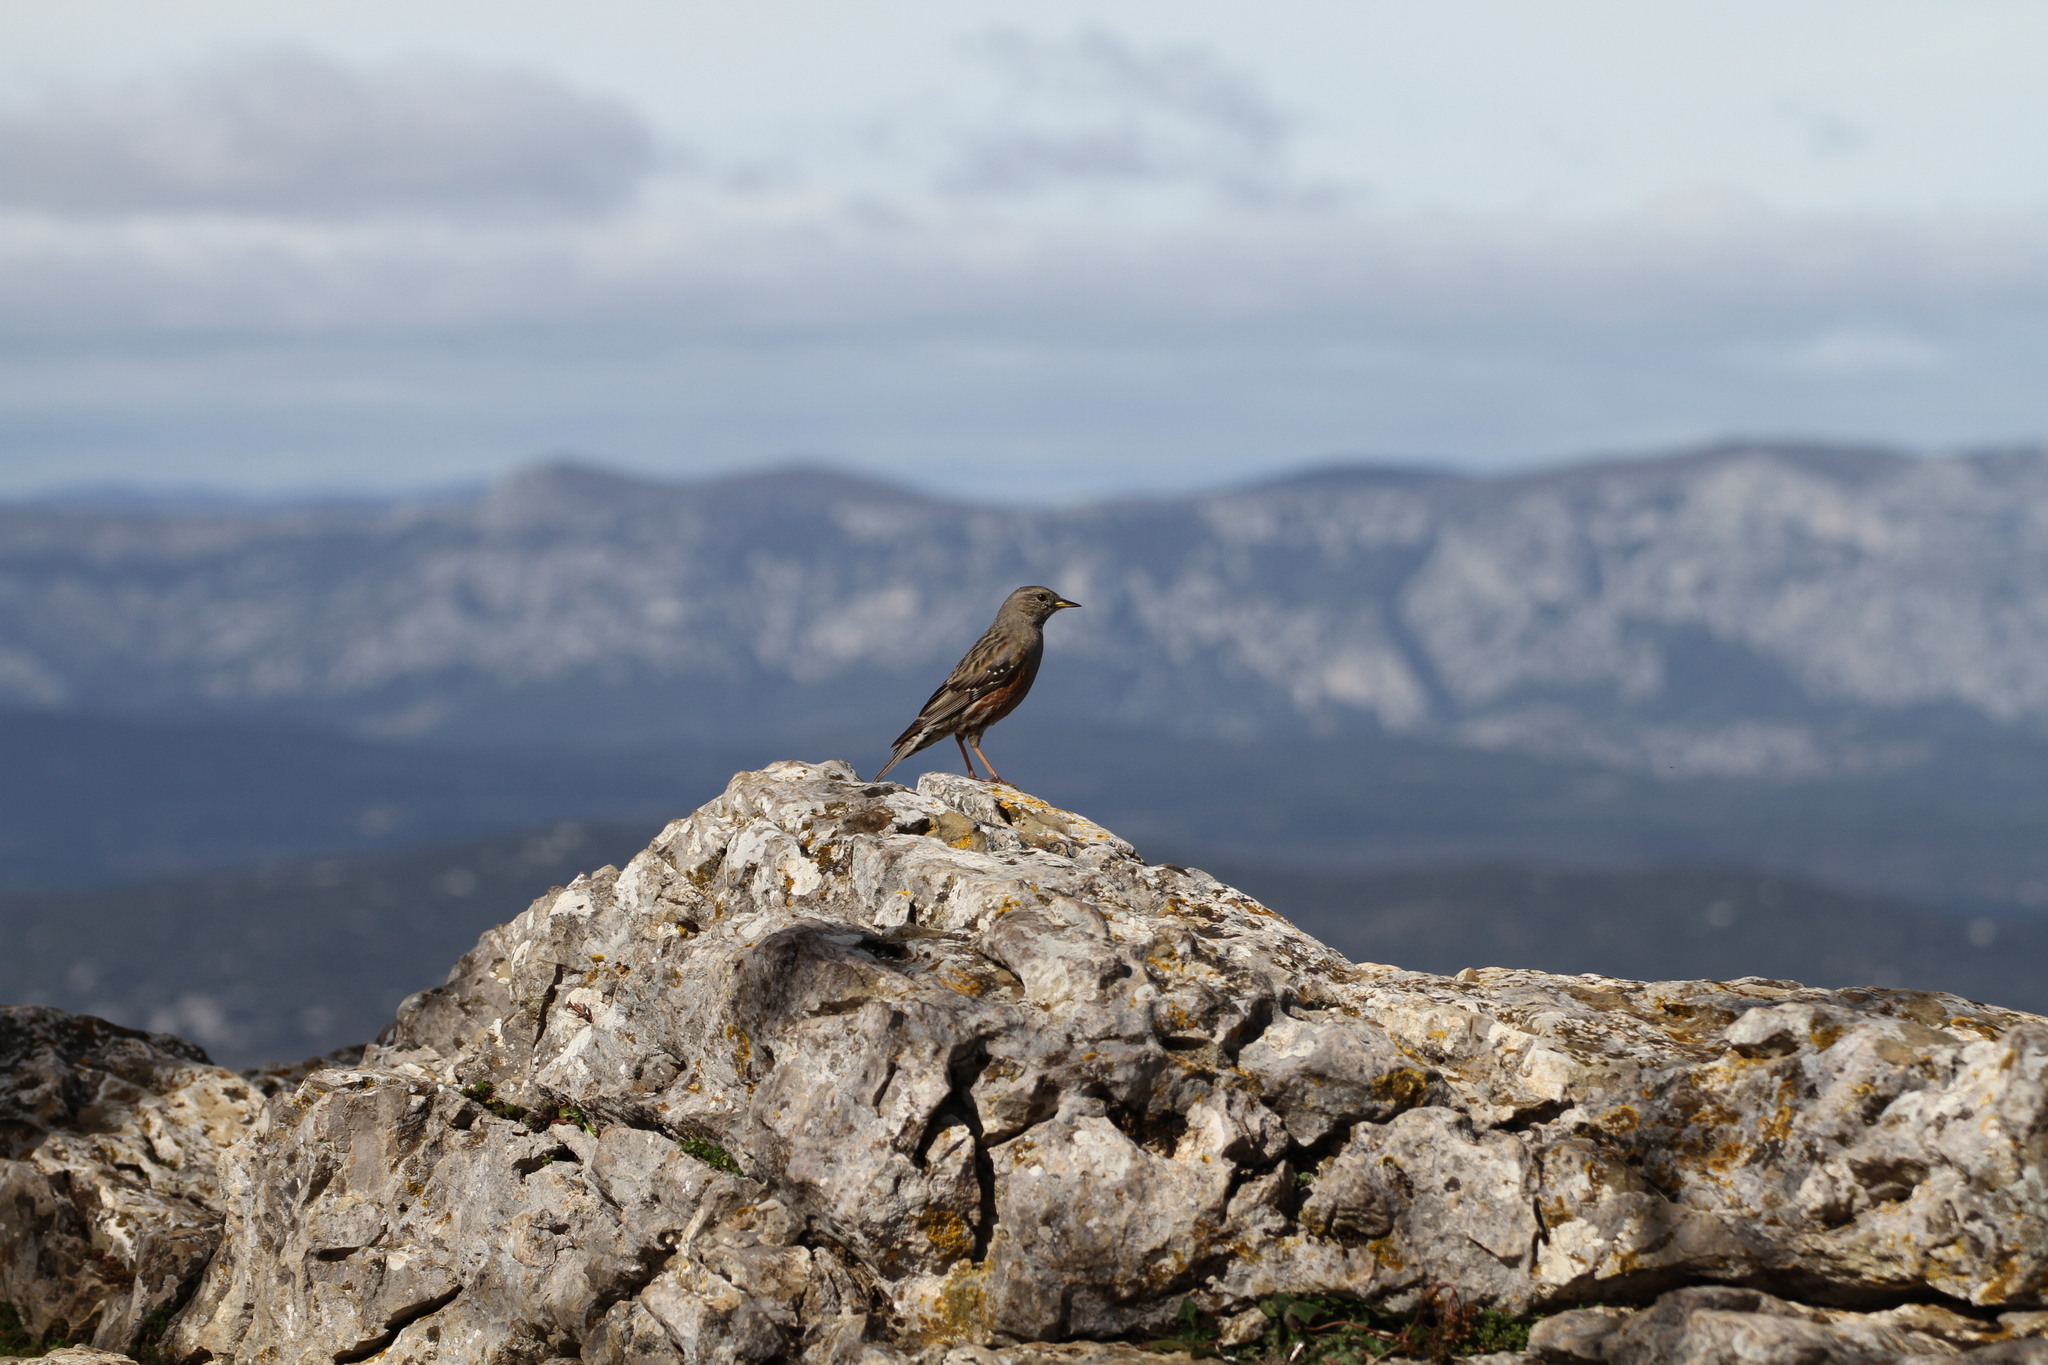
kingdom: Animalia
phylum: Chordata
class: Aves
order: Passeriformes
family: Prunellidae
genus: Prunella
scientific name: Prunella collaris
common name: Alpine accentor
